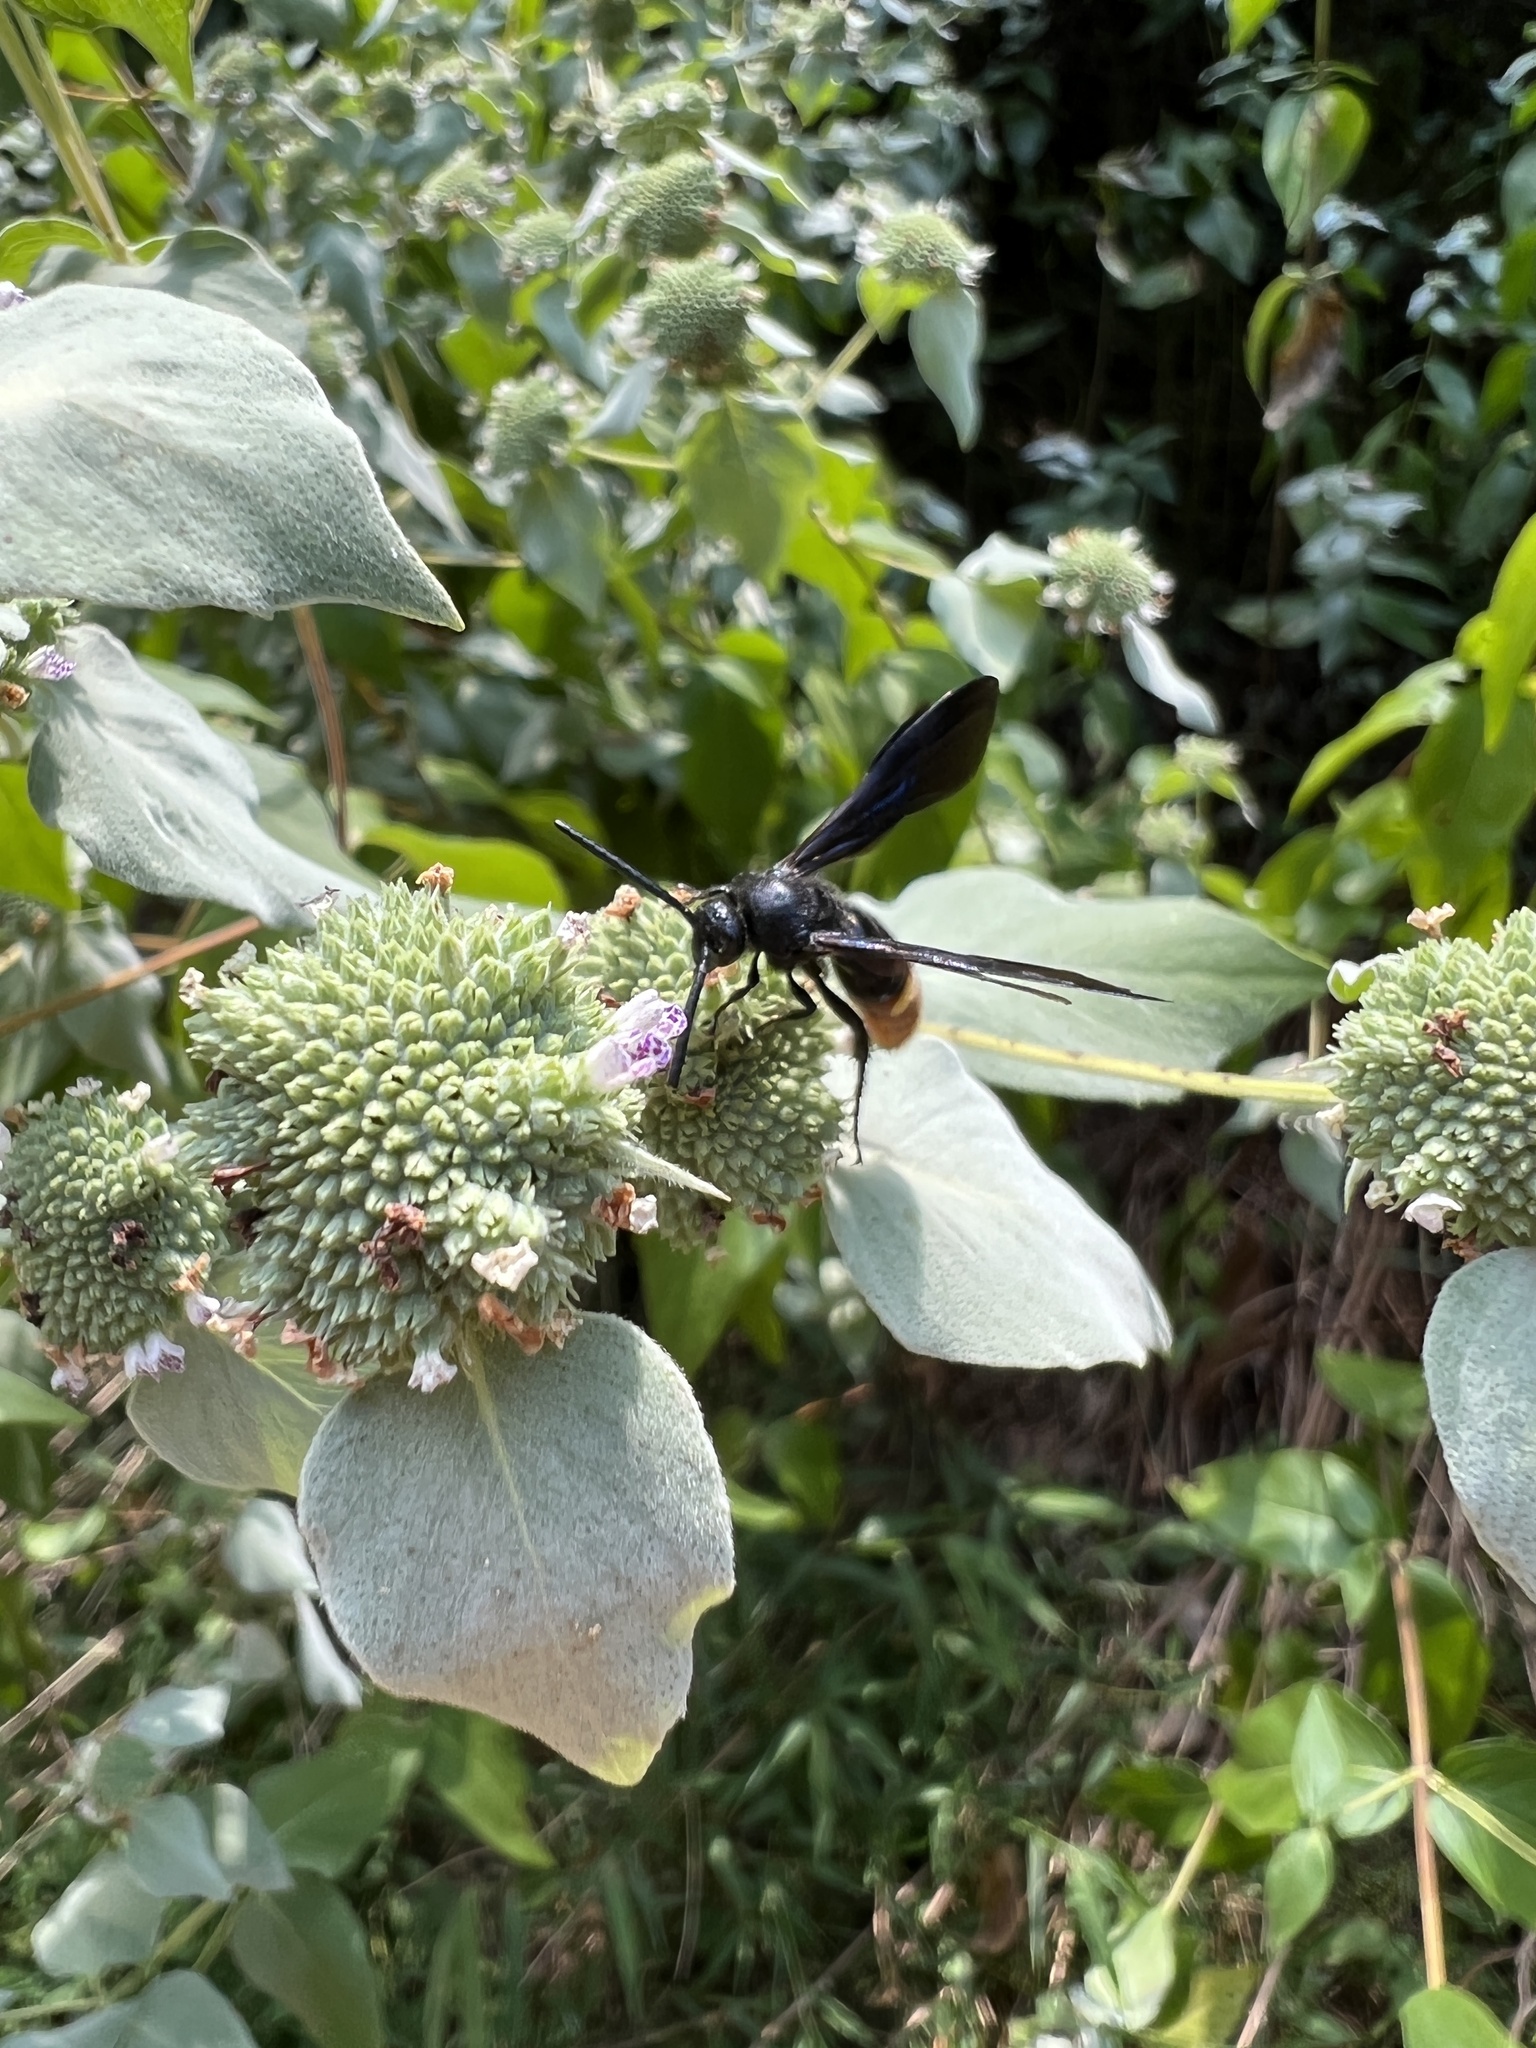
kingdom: Animalia
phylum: Arthropoda
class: Insecta
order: Hymenoptera
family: Scoliidae
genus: Scolia
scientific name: Scolia dubia
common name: Blue-winged scoliid wasp
